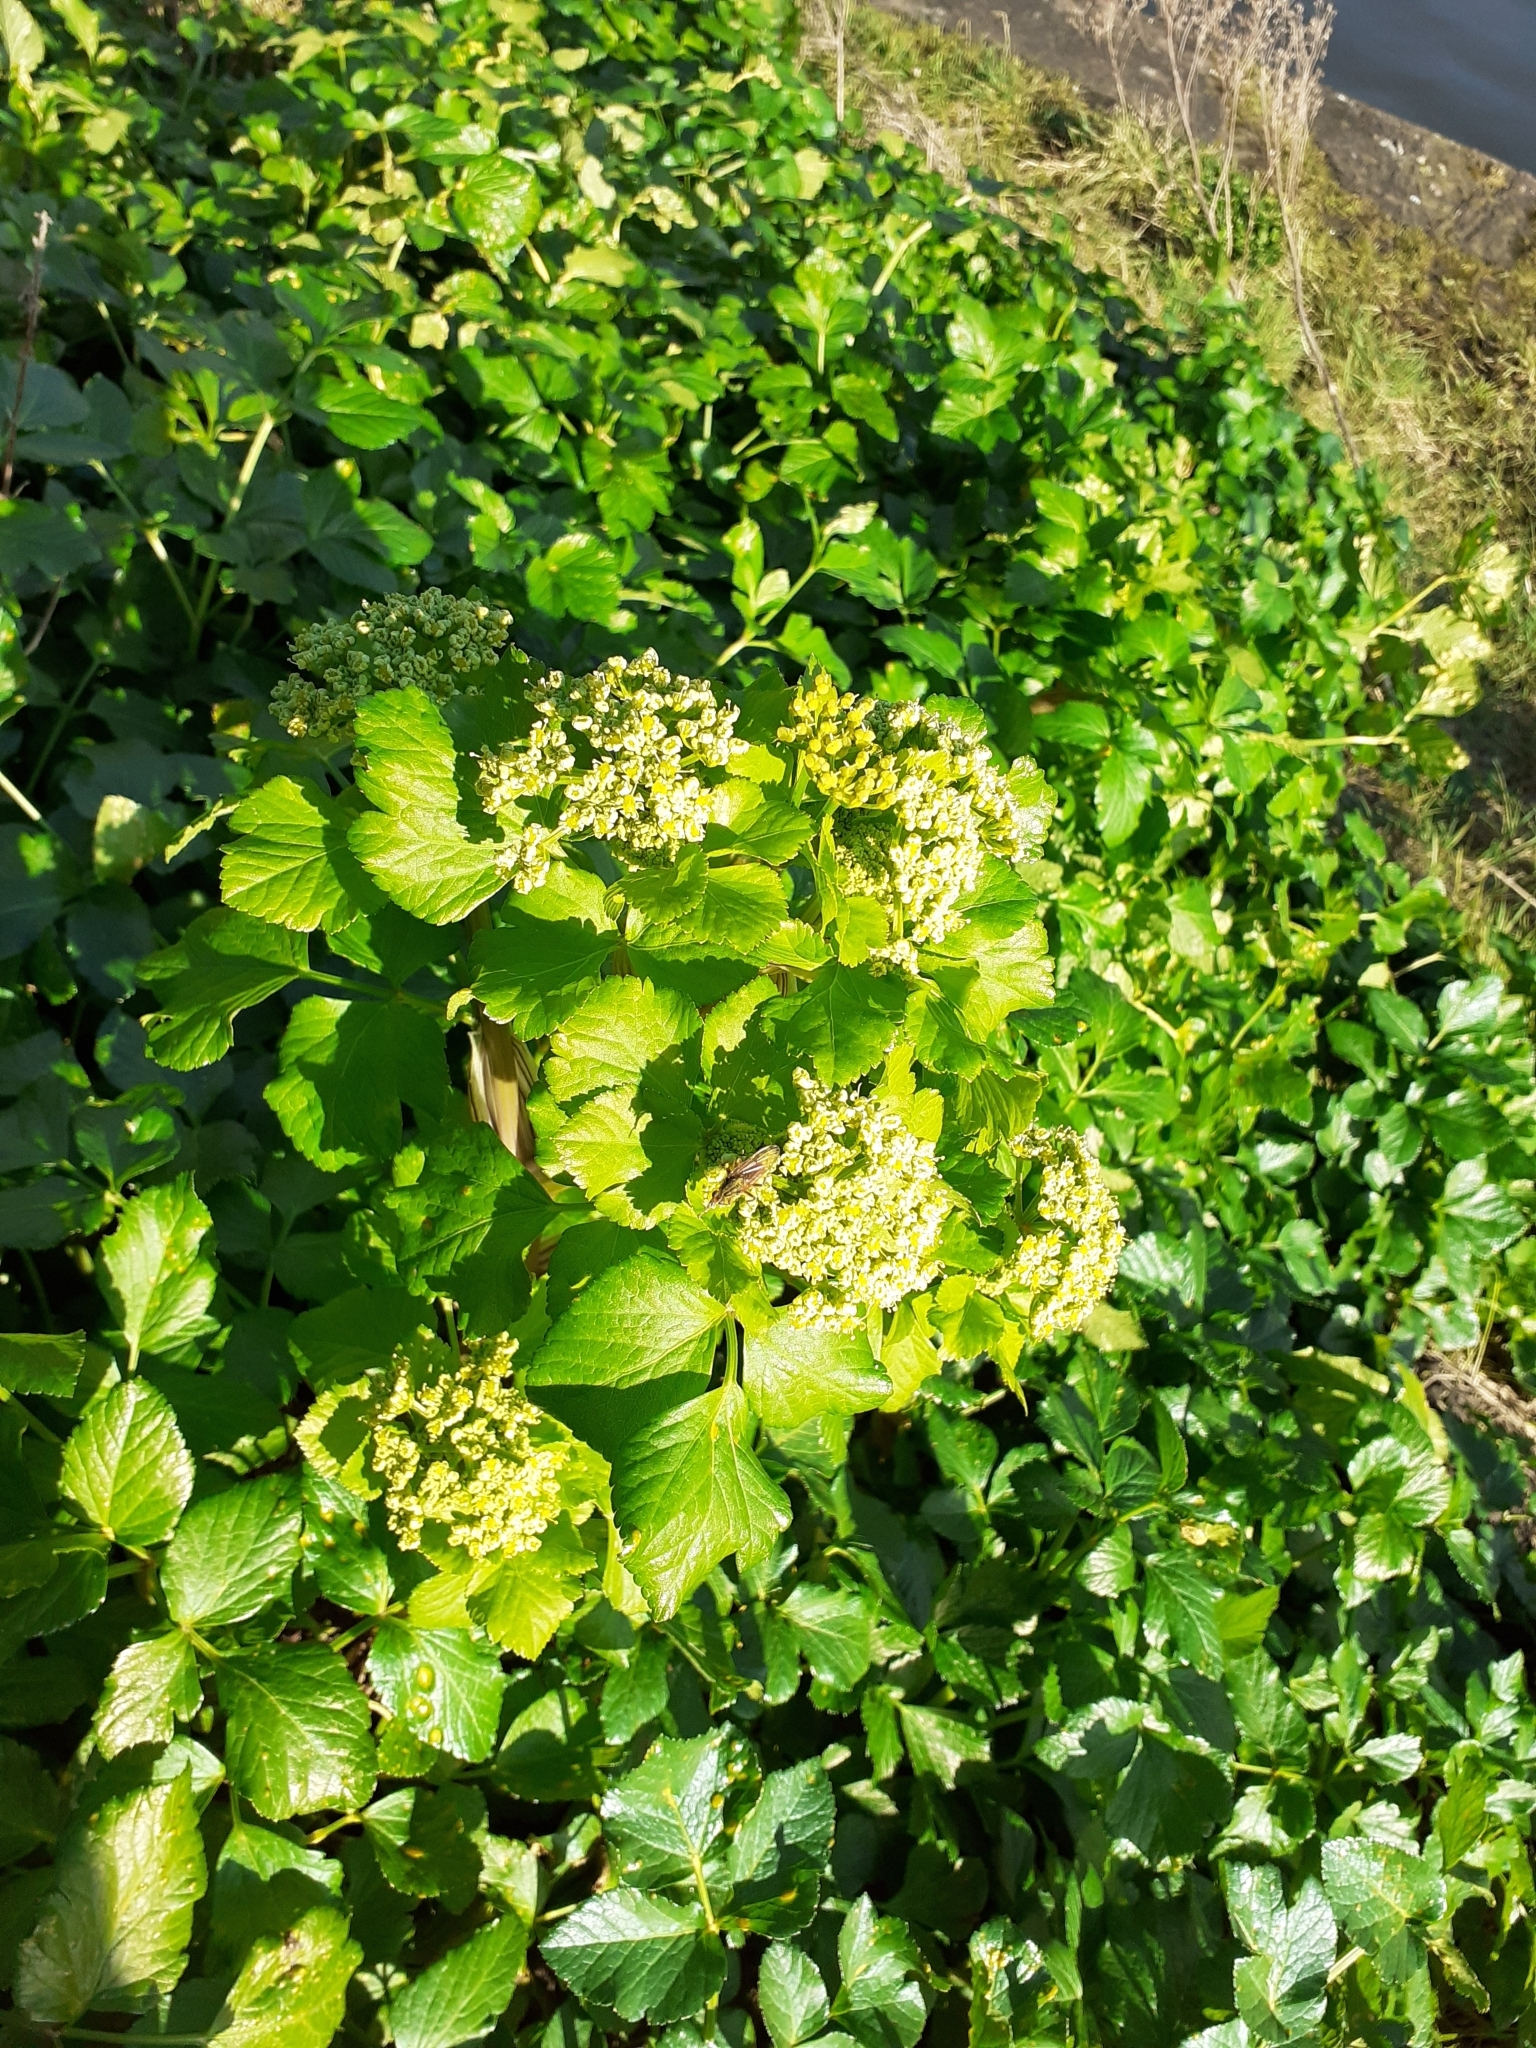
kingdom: Plantae
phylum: Tracheophyta
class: Magnoliopsida
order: Apiales
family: Apiaceae
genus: Smyrnium
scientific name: Smyrnium olusatrum
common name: Alexanders
